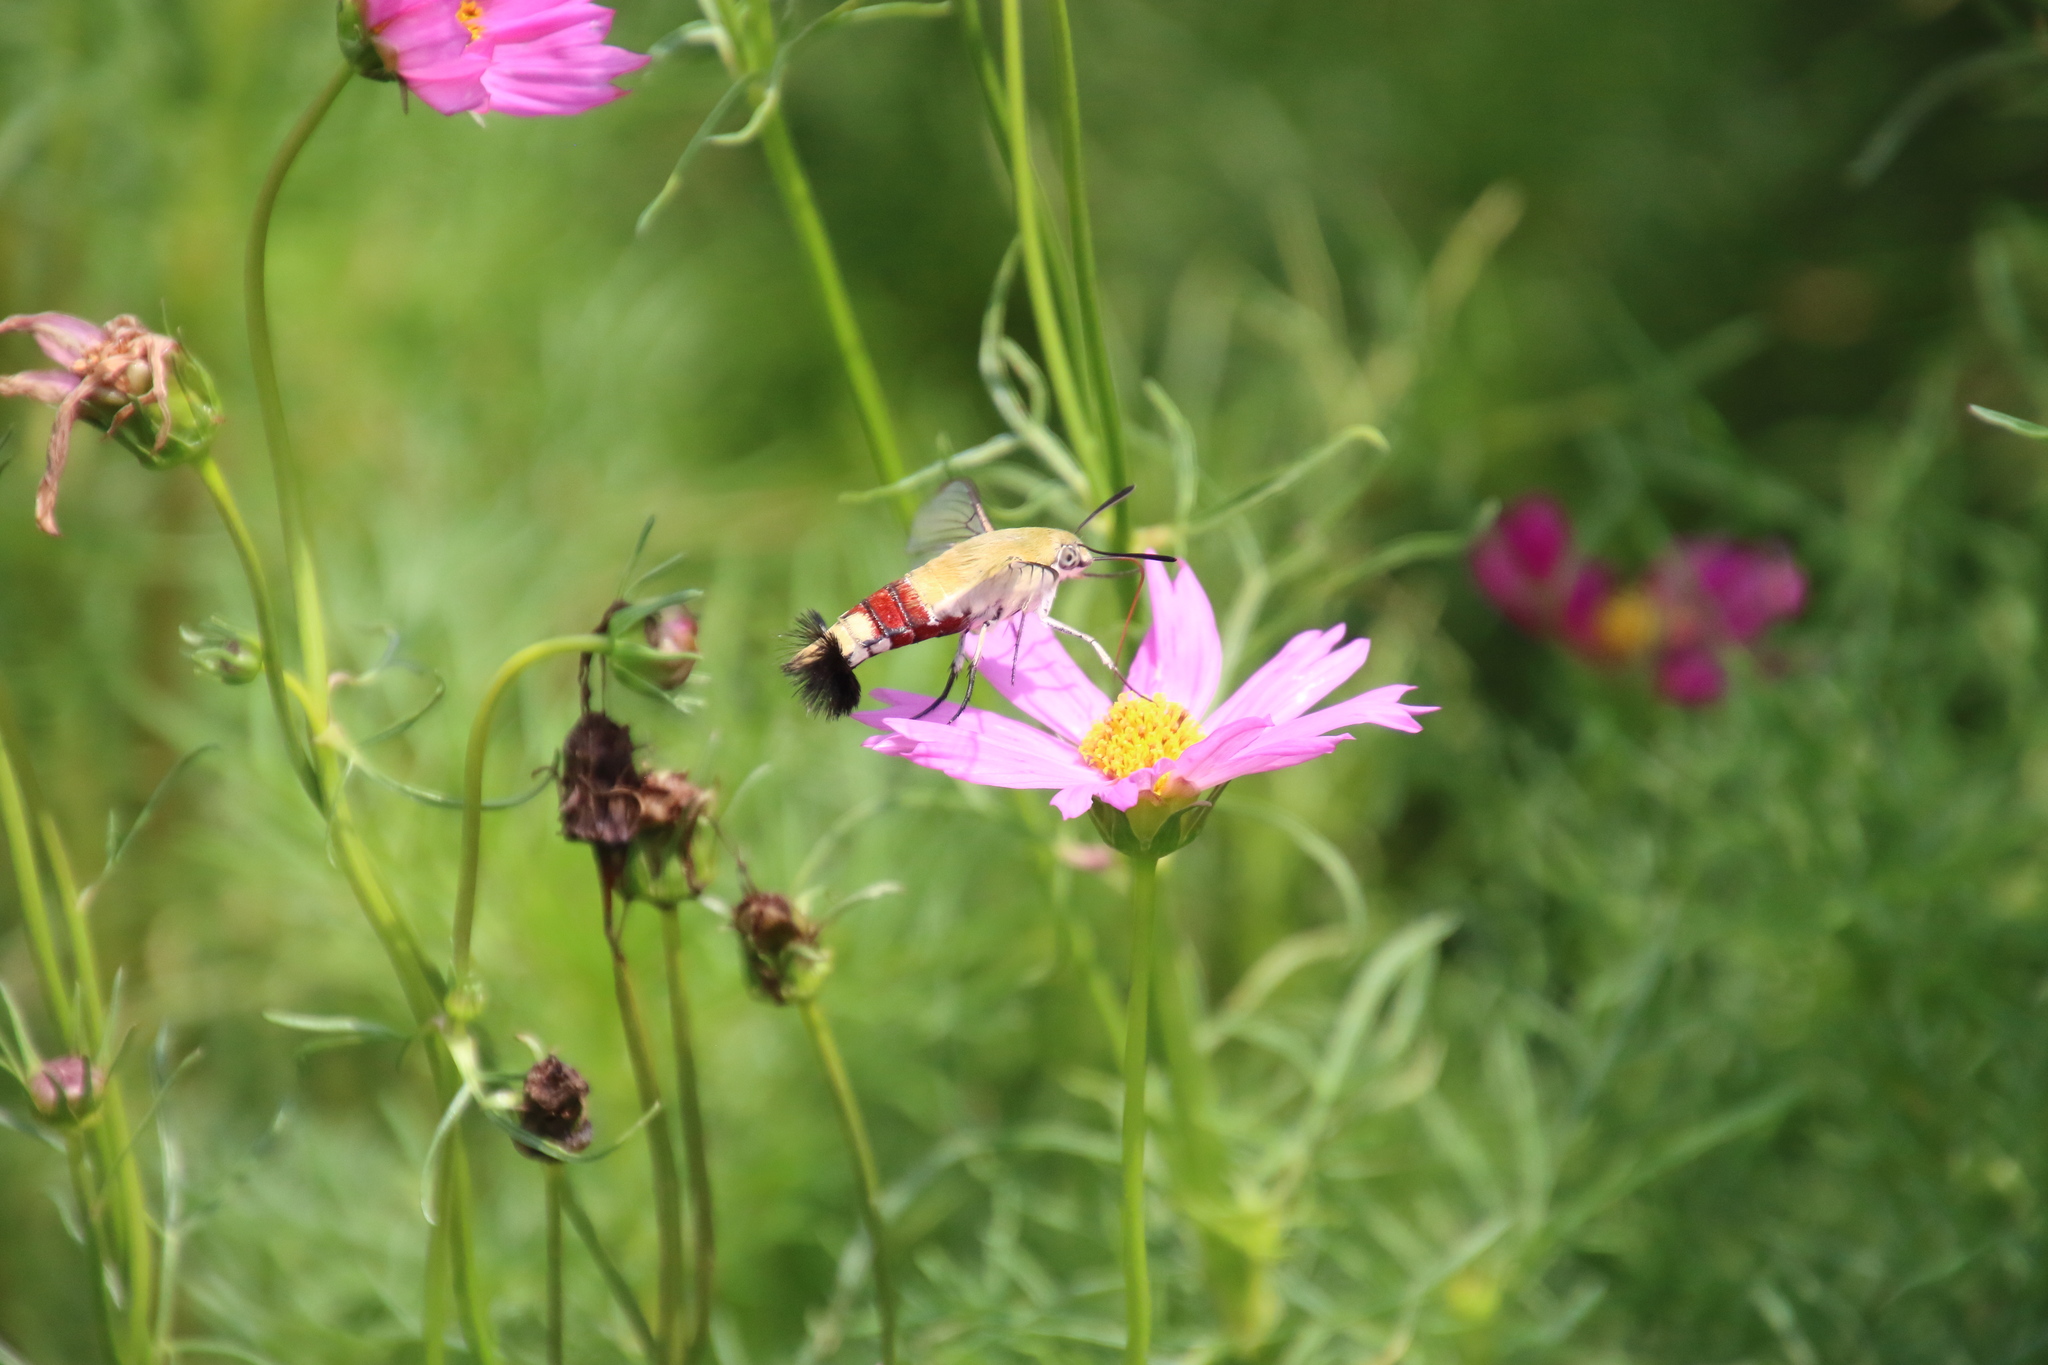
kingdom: Animalia
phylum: Arthropoda
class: Insecta
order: Lepidoptera
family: Sphingidae
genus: Cephonodes
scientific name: Cephonodes hylas
